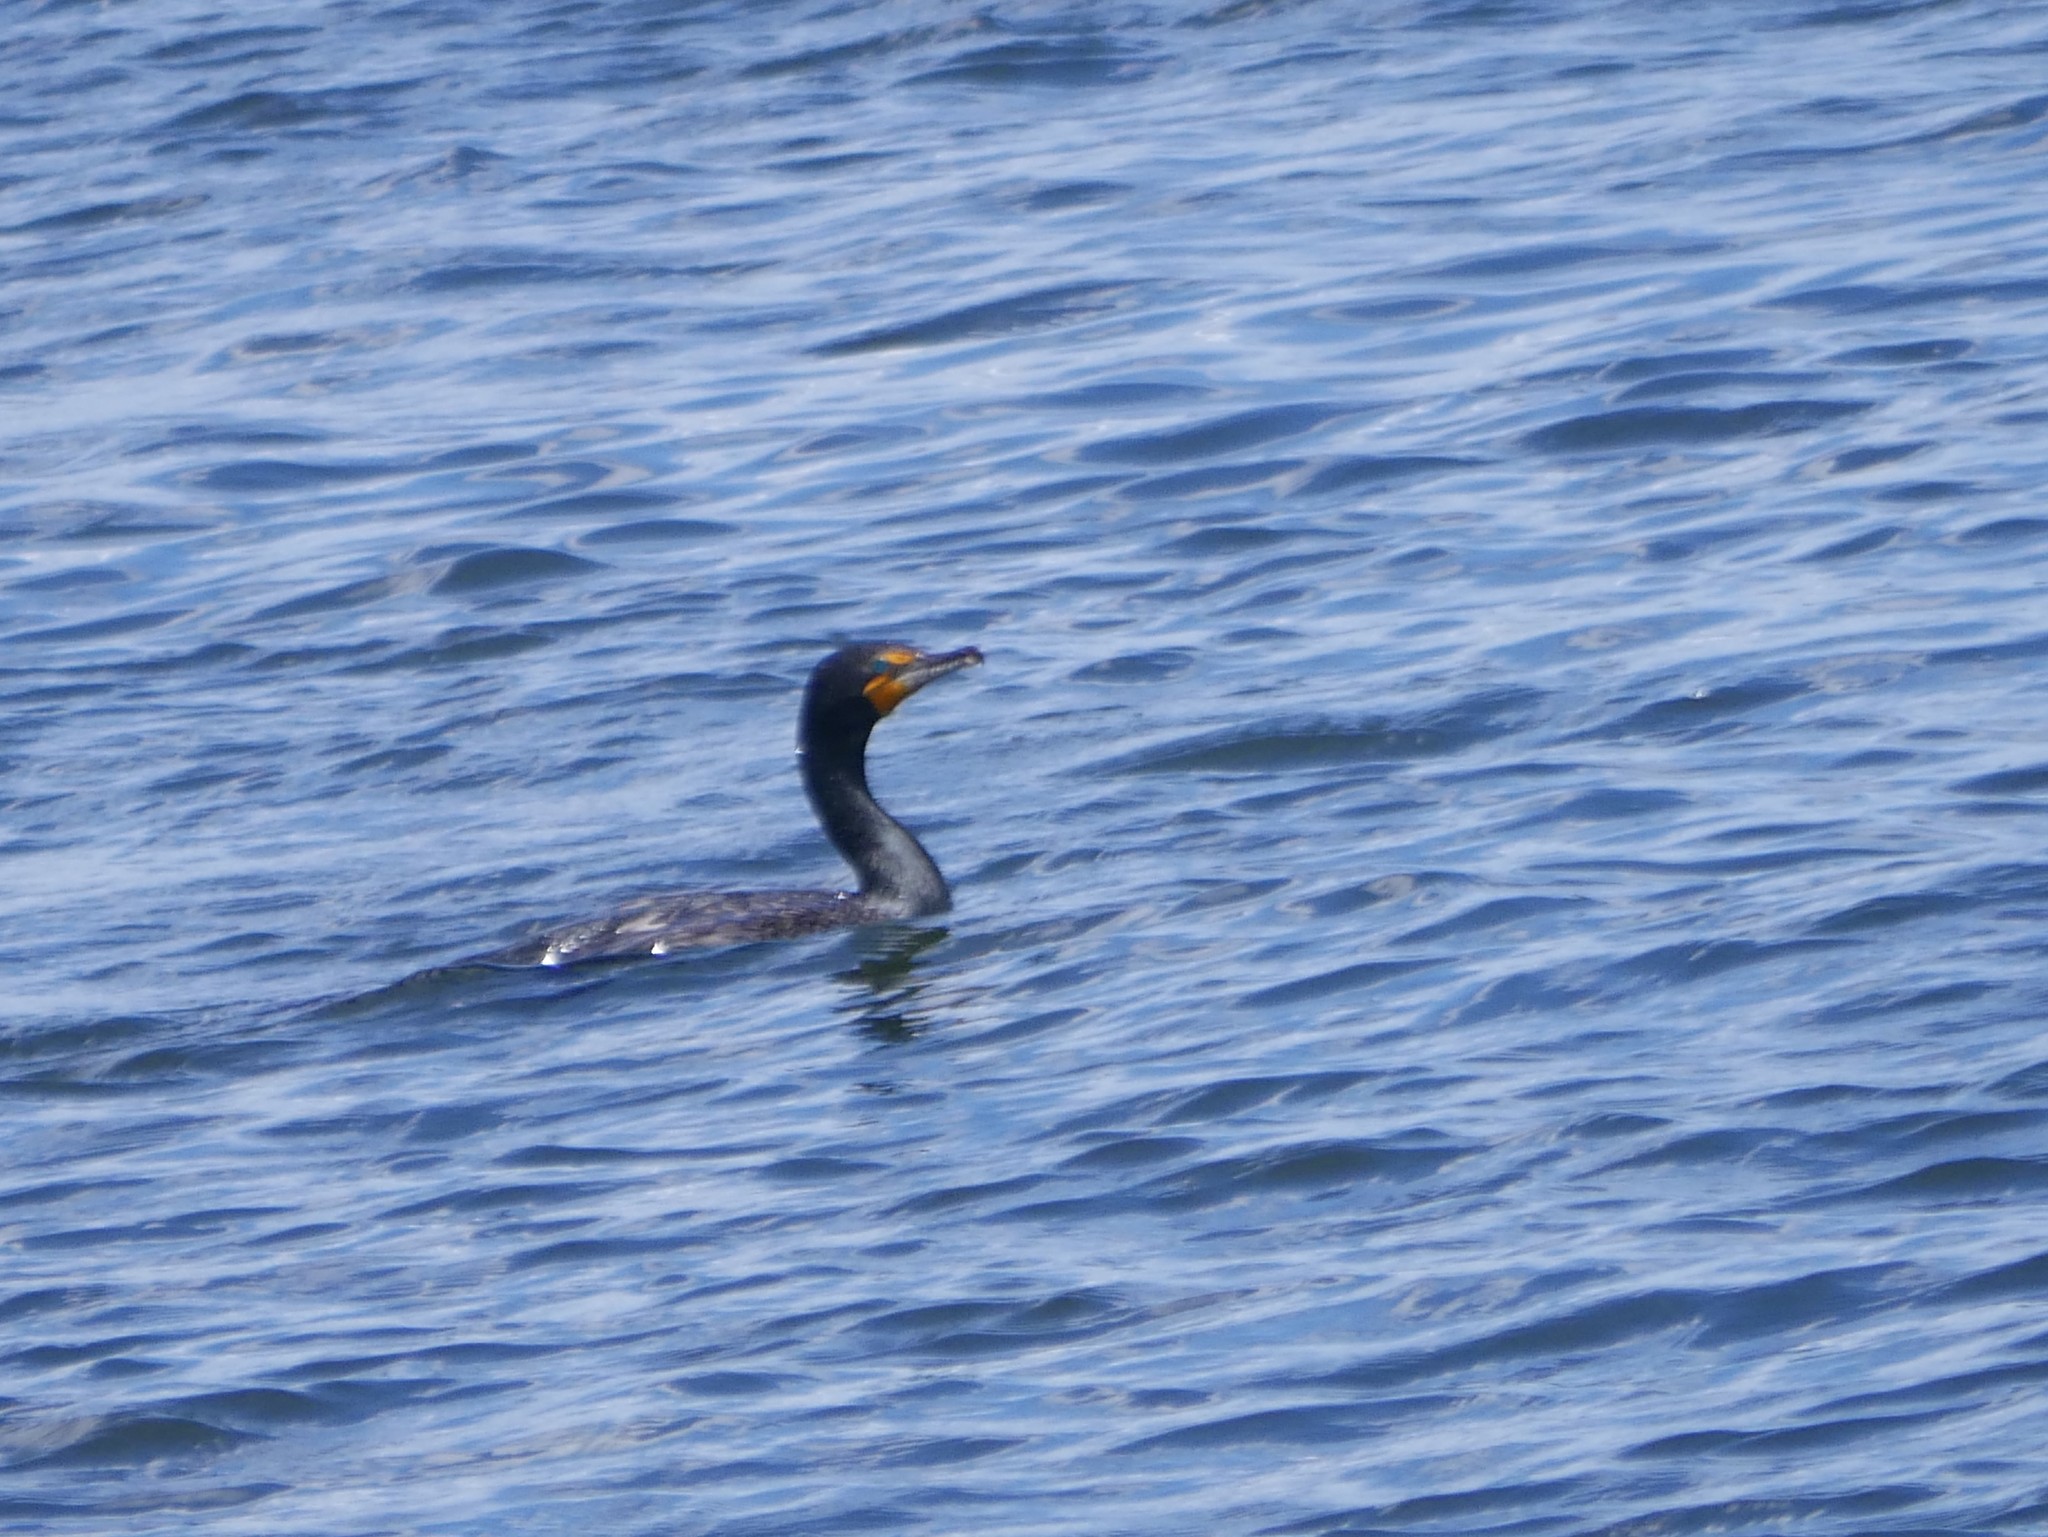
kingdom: Animalia
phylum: Chordata
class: Aves
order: Suliformes
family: Phalacrocoracidae
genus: Phalacrocorax
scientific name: Phalacrocorax auritus
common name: Double-crested cormorant
